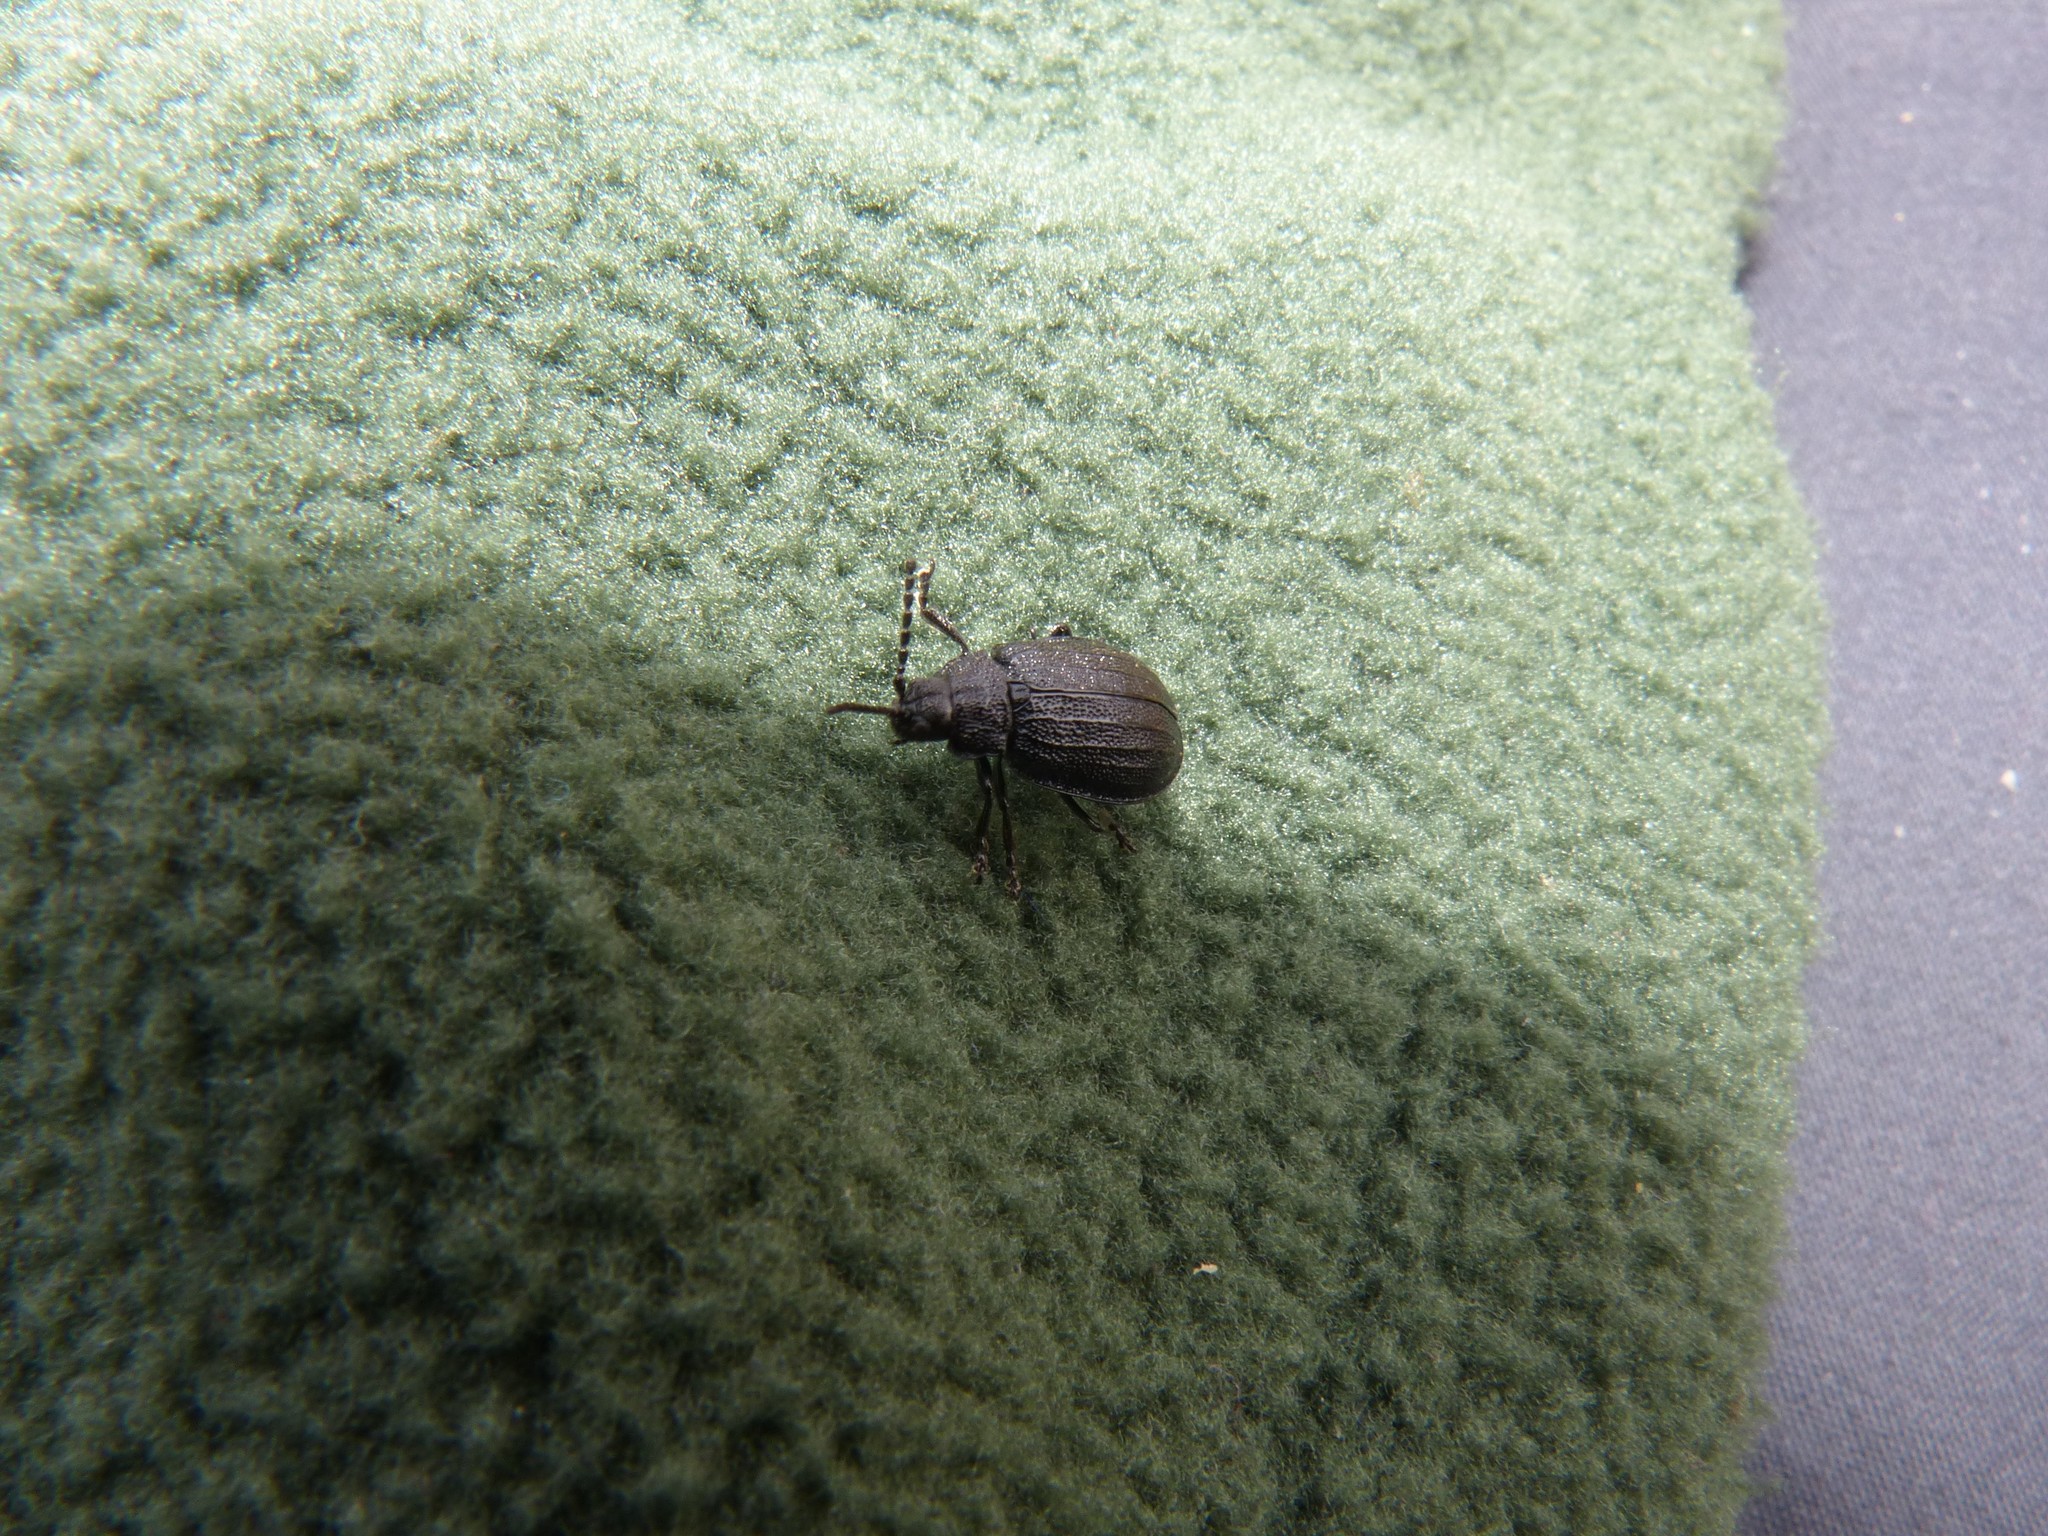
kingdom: Animalia
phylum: Arthropoda
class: Insecta
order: Coleoptera
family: Chrysomelidae
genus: Galeruca
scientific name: Galeruca tanaceti
